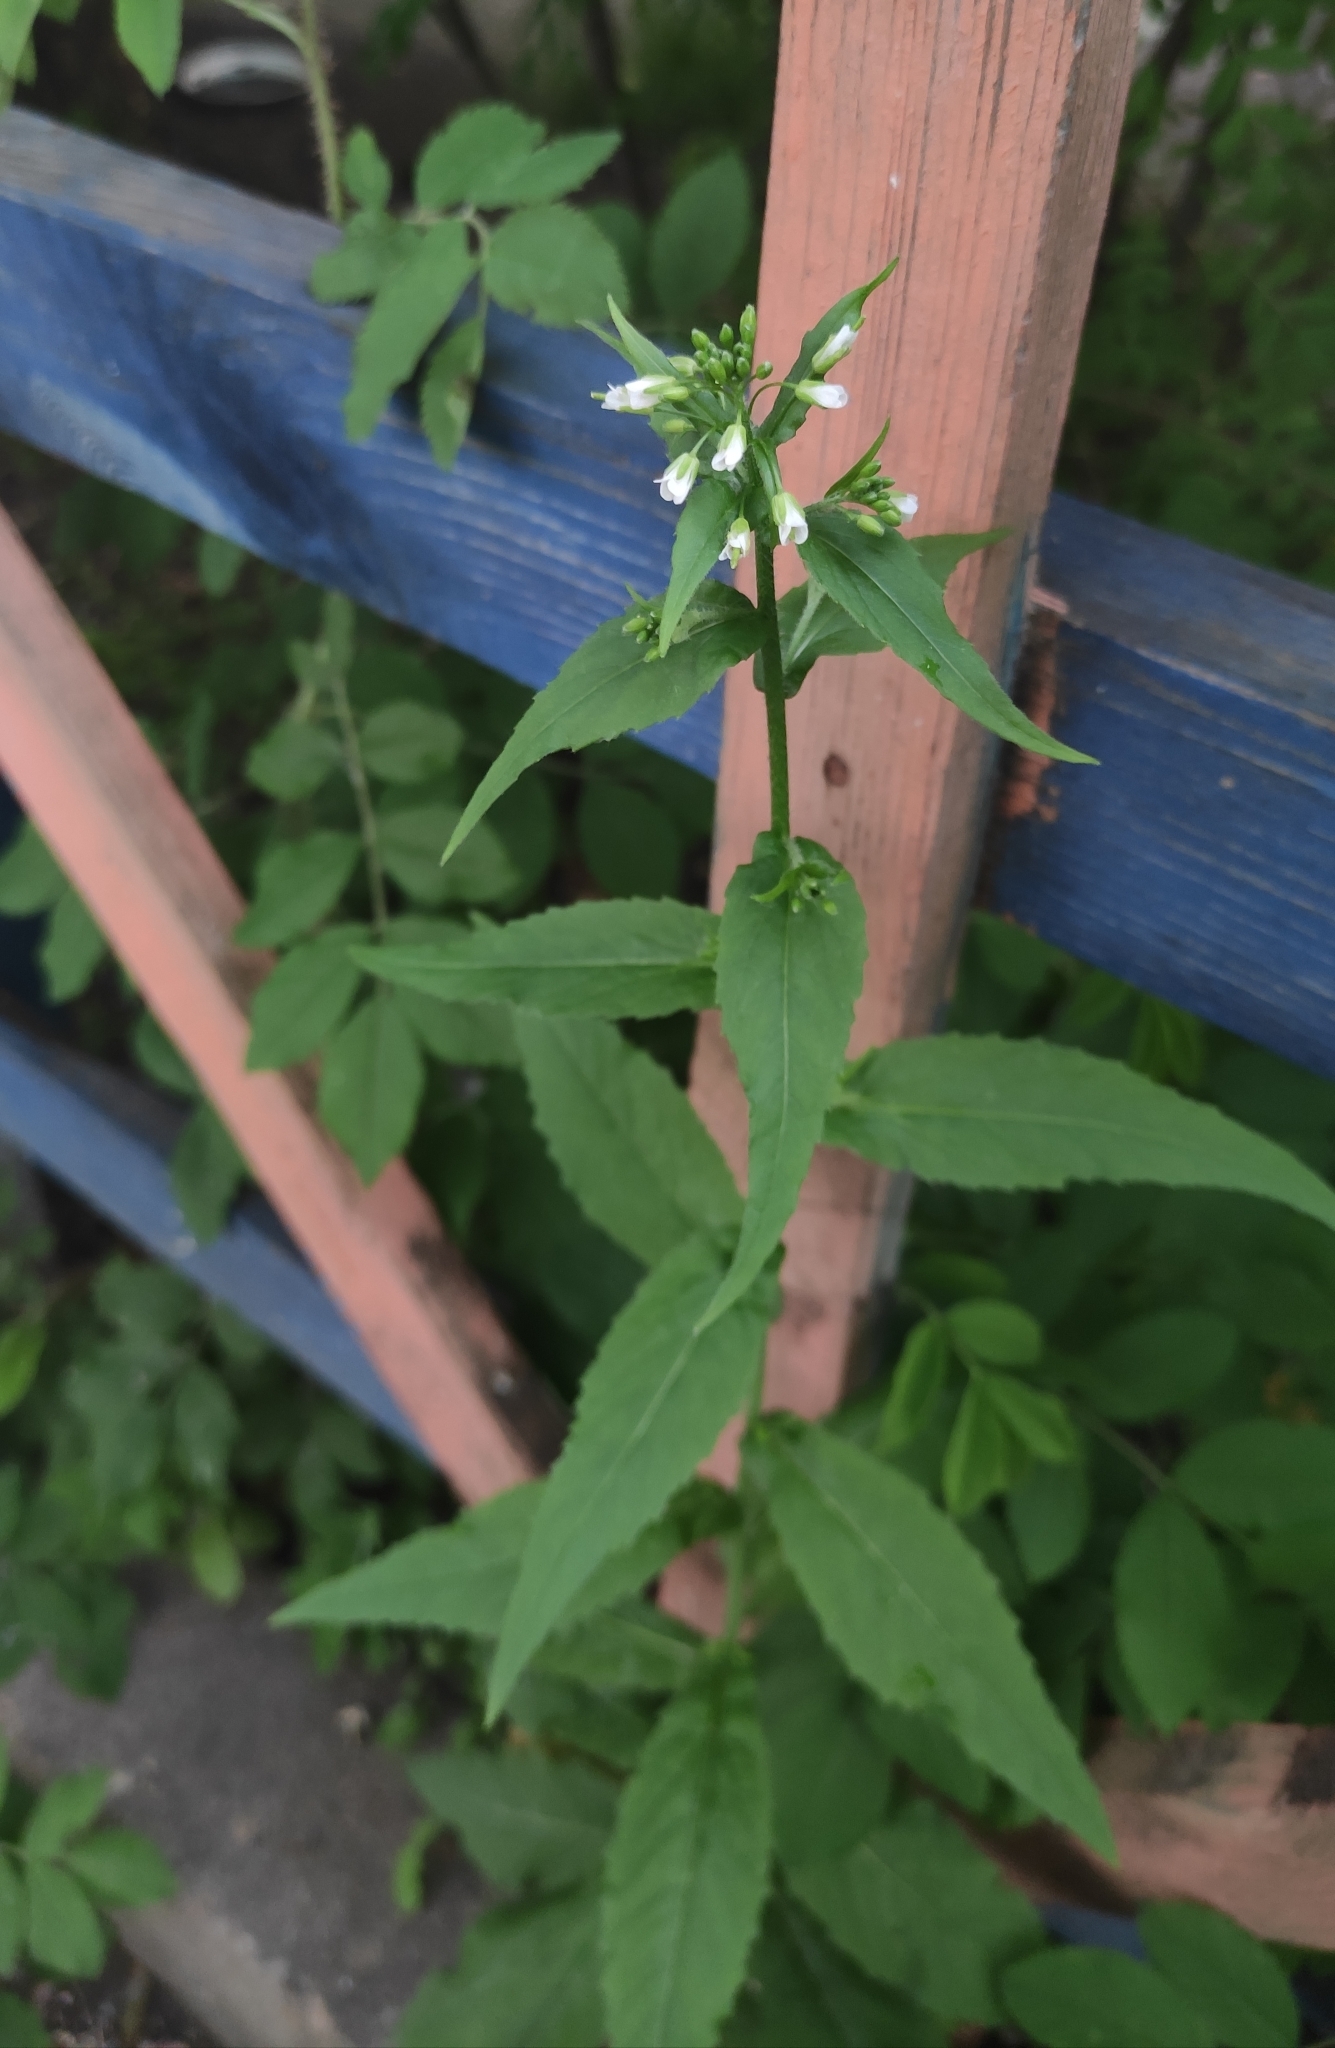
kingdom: Plantae
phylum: Tracheophyta
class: Magnoliopsida
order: Brassicales
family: Brassicaceae
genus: Catolobus
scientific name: Catolobus pendulus
